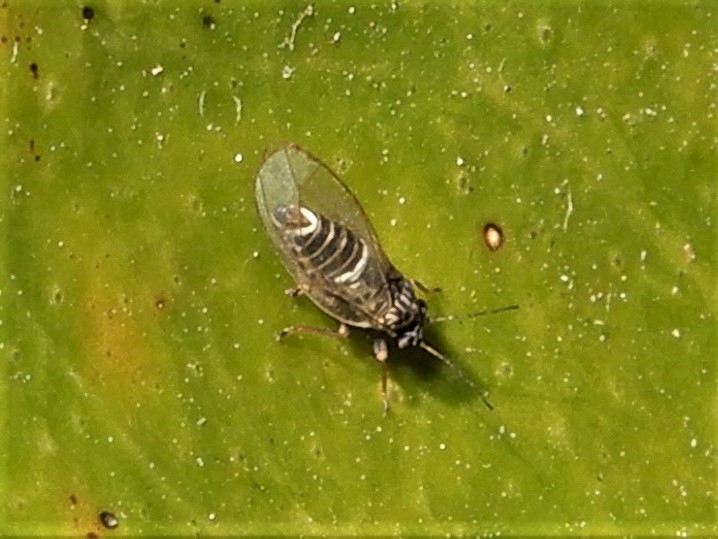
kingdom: Animalia
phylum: Arthropoda
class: Insecta
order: Hemiptera
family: Triozidae
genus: Bactericera
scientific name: Bactericera cockerelli
